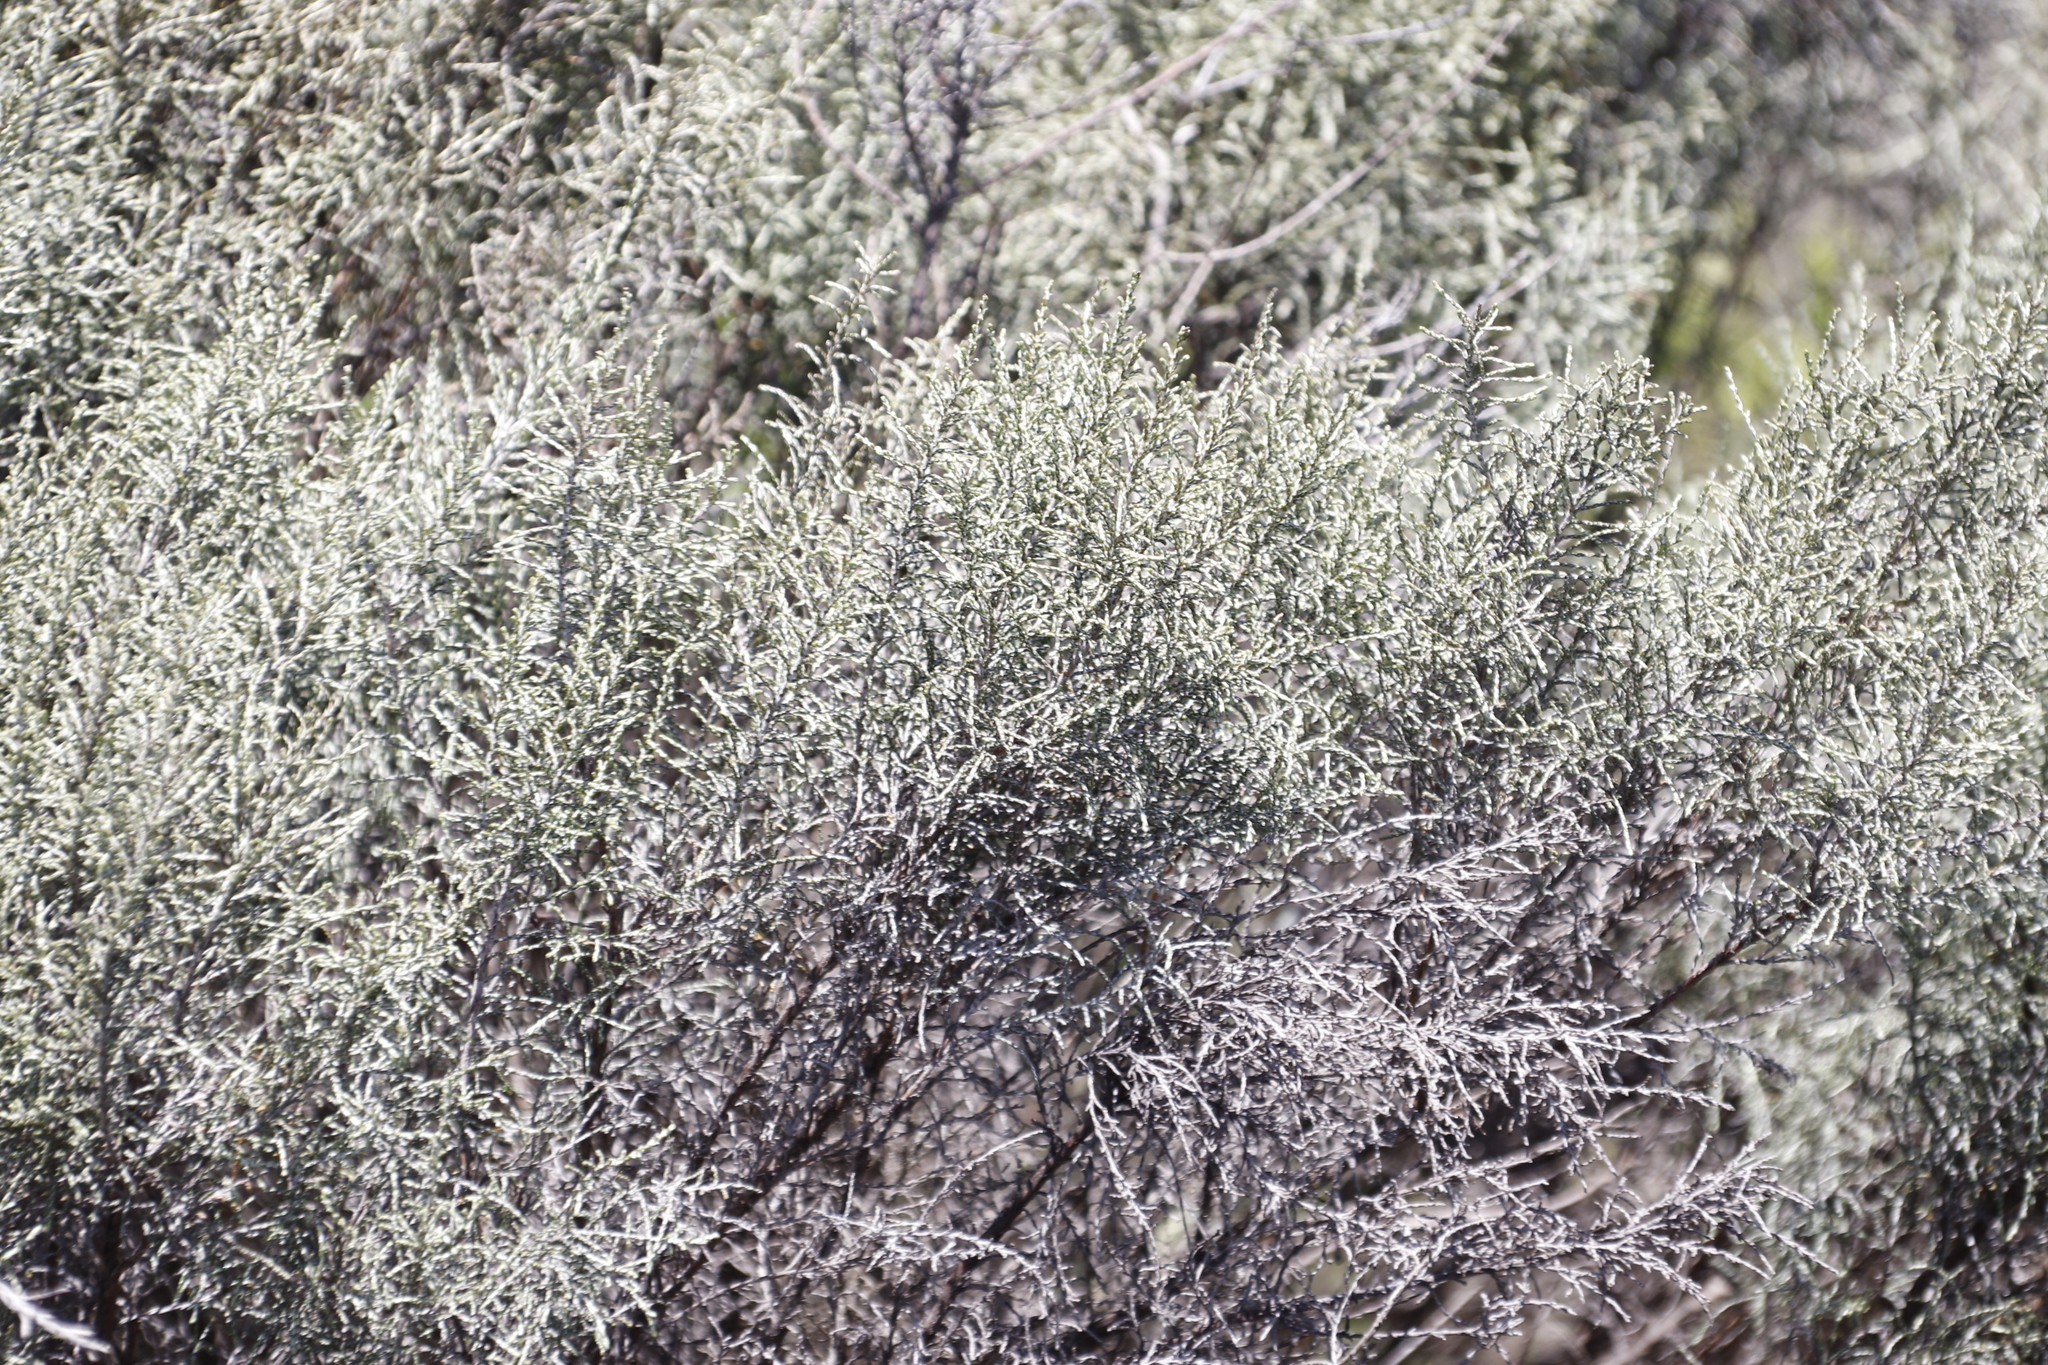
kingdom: Plantae
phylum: Tracheophyta
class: Magnoliopsida
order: Asterales
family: Asteraceae
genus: Dicerothamnus
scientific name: Dicerothamnus rhinocerotis
